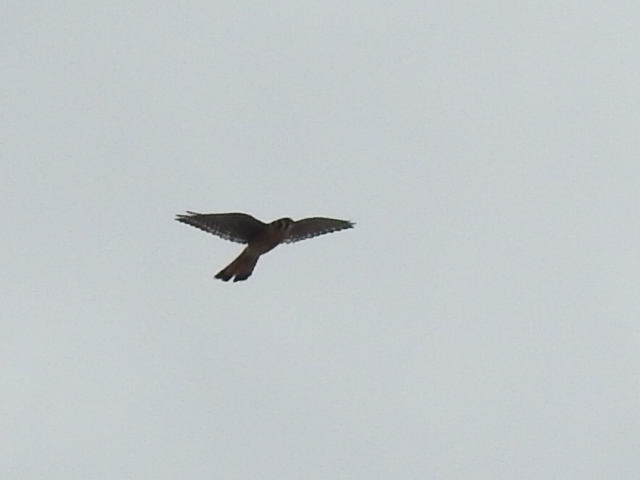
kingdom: Animalia
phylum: Chordata
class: Aves
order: Falconiformes
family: Falconidae
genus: Falco
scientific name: Falco sparverius
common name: American kestrel
